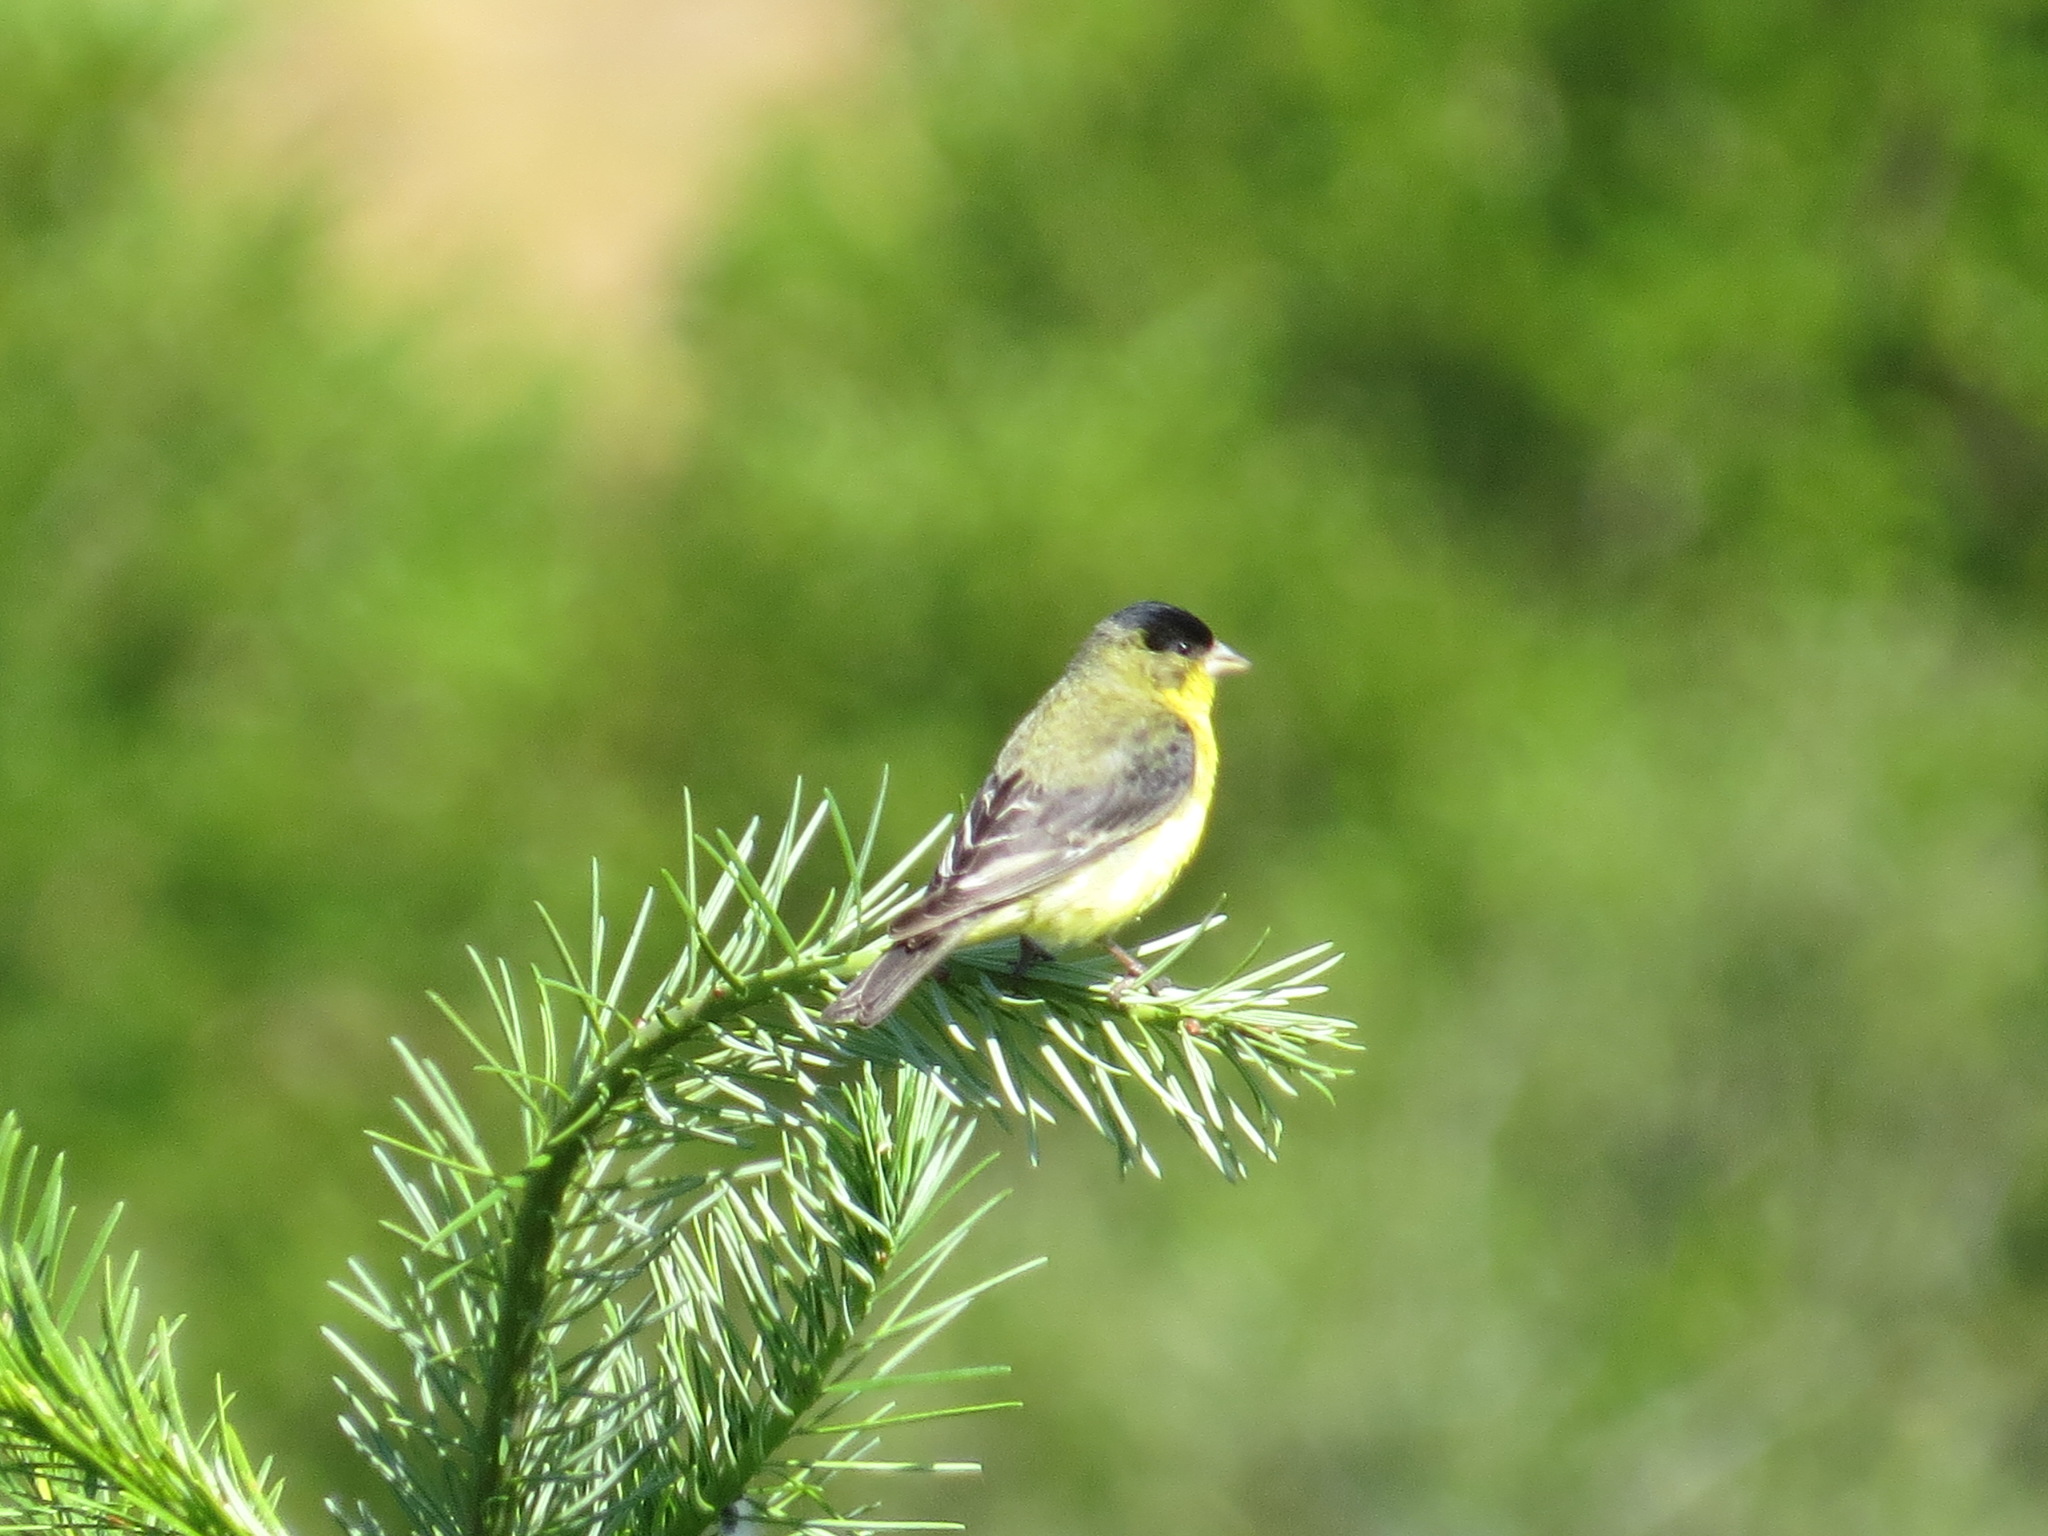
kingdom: Animalia
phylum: Chordata
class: Aves
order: Passeriformes
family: Fringillidae
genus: Spinus
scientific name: Spinus psaltria
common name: Lesser goldfinch
